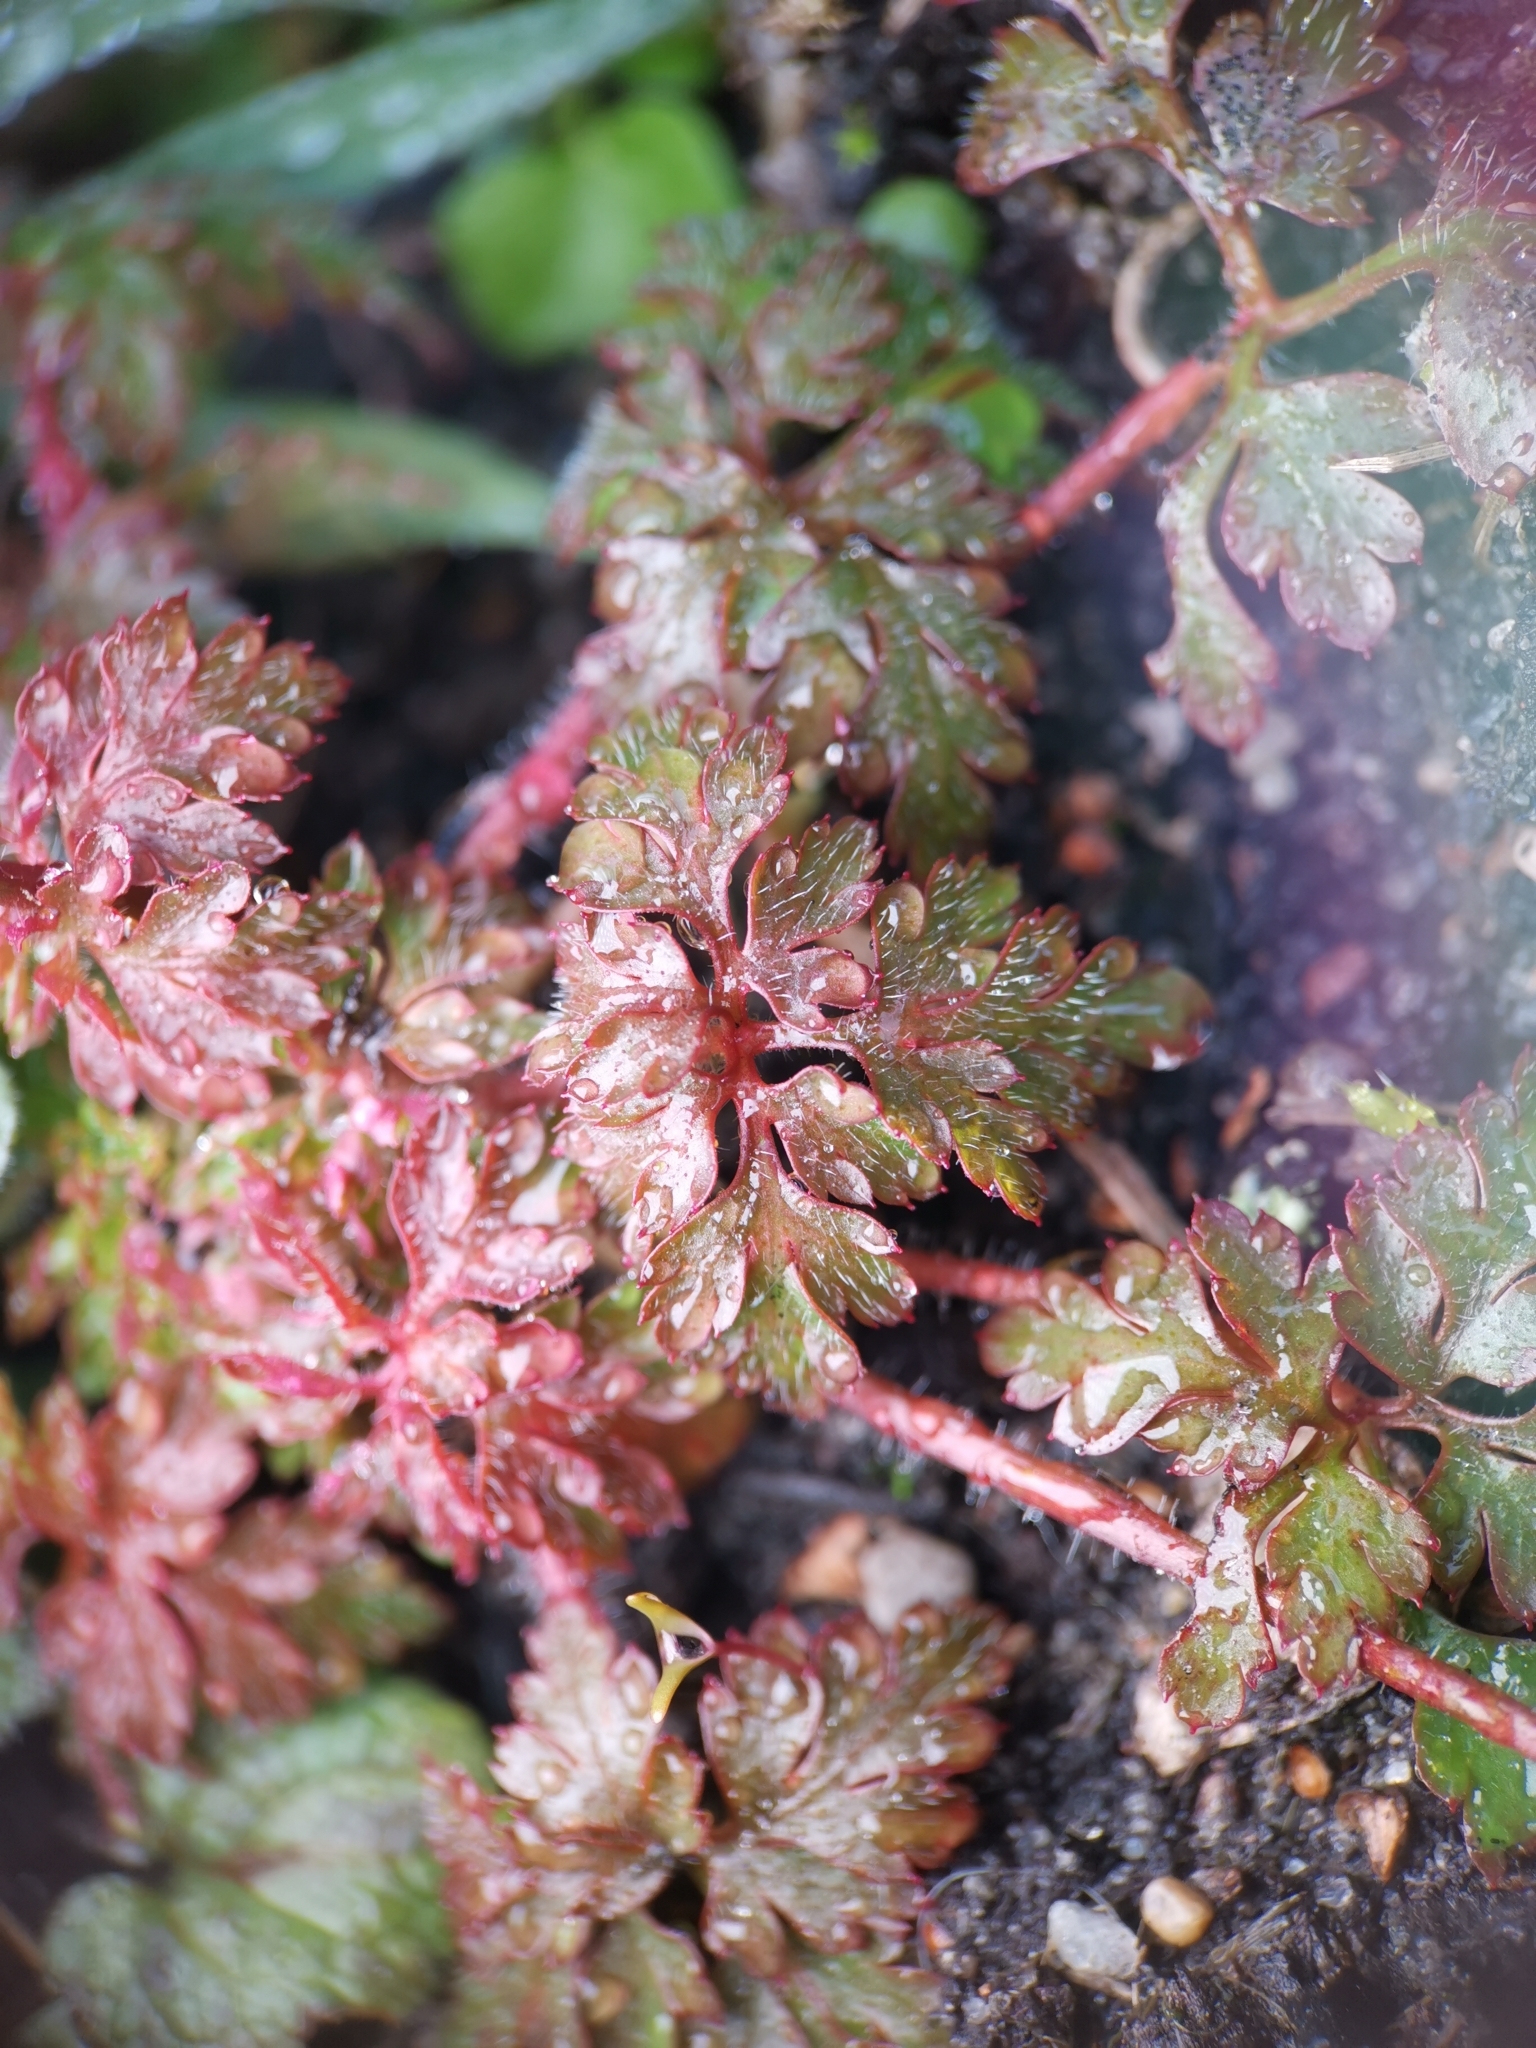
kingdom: Plantae
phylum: Tracheophyta
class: Magnoliopsida
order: Geraniales
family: Geraniaceae
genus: Geranium
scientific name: Geranium robertianum
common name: Herb-robert
